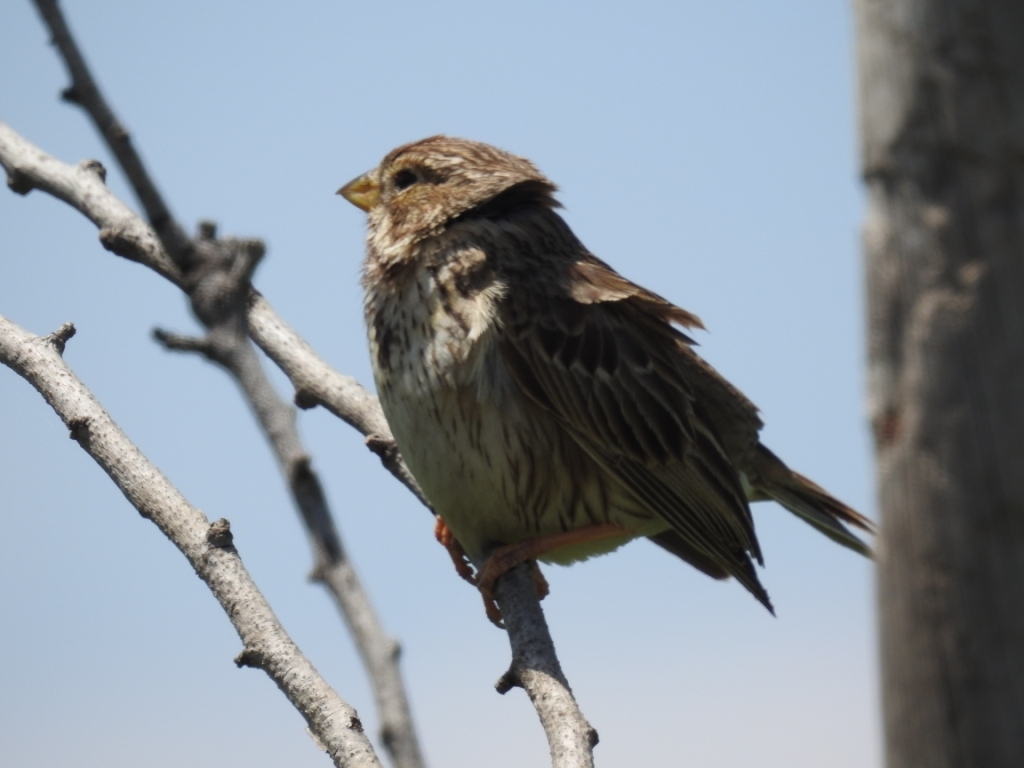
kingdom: Animalia
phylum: Chordata
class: Aves
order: Passeriformes
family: Emberizidae
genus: Emberiza
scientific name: Emberiza calandra
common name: Corn bunting
